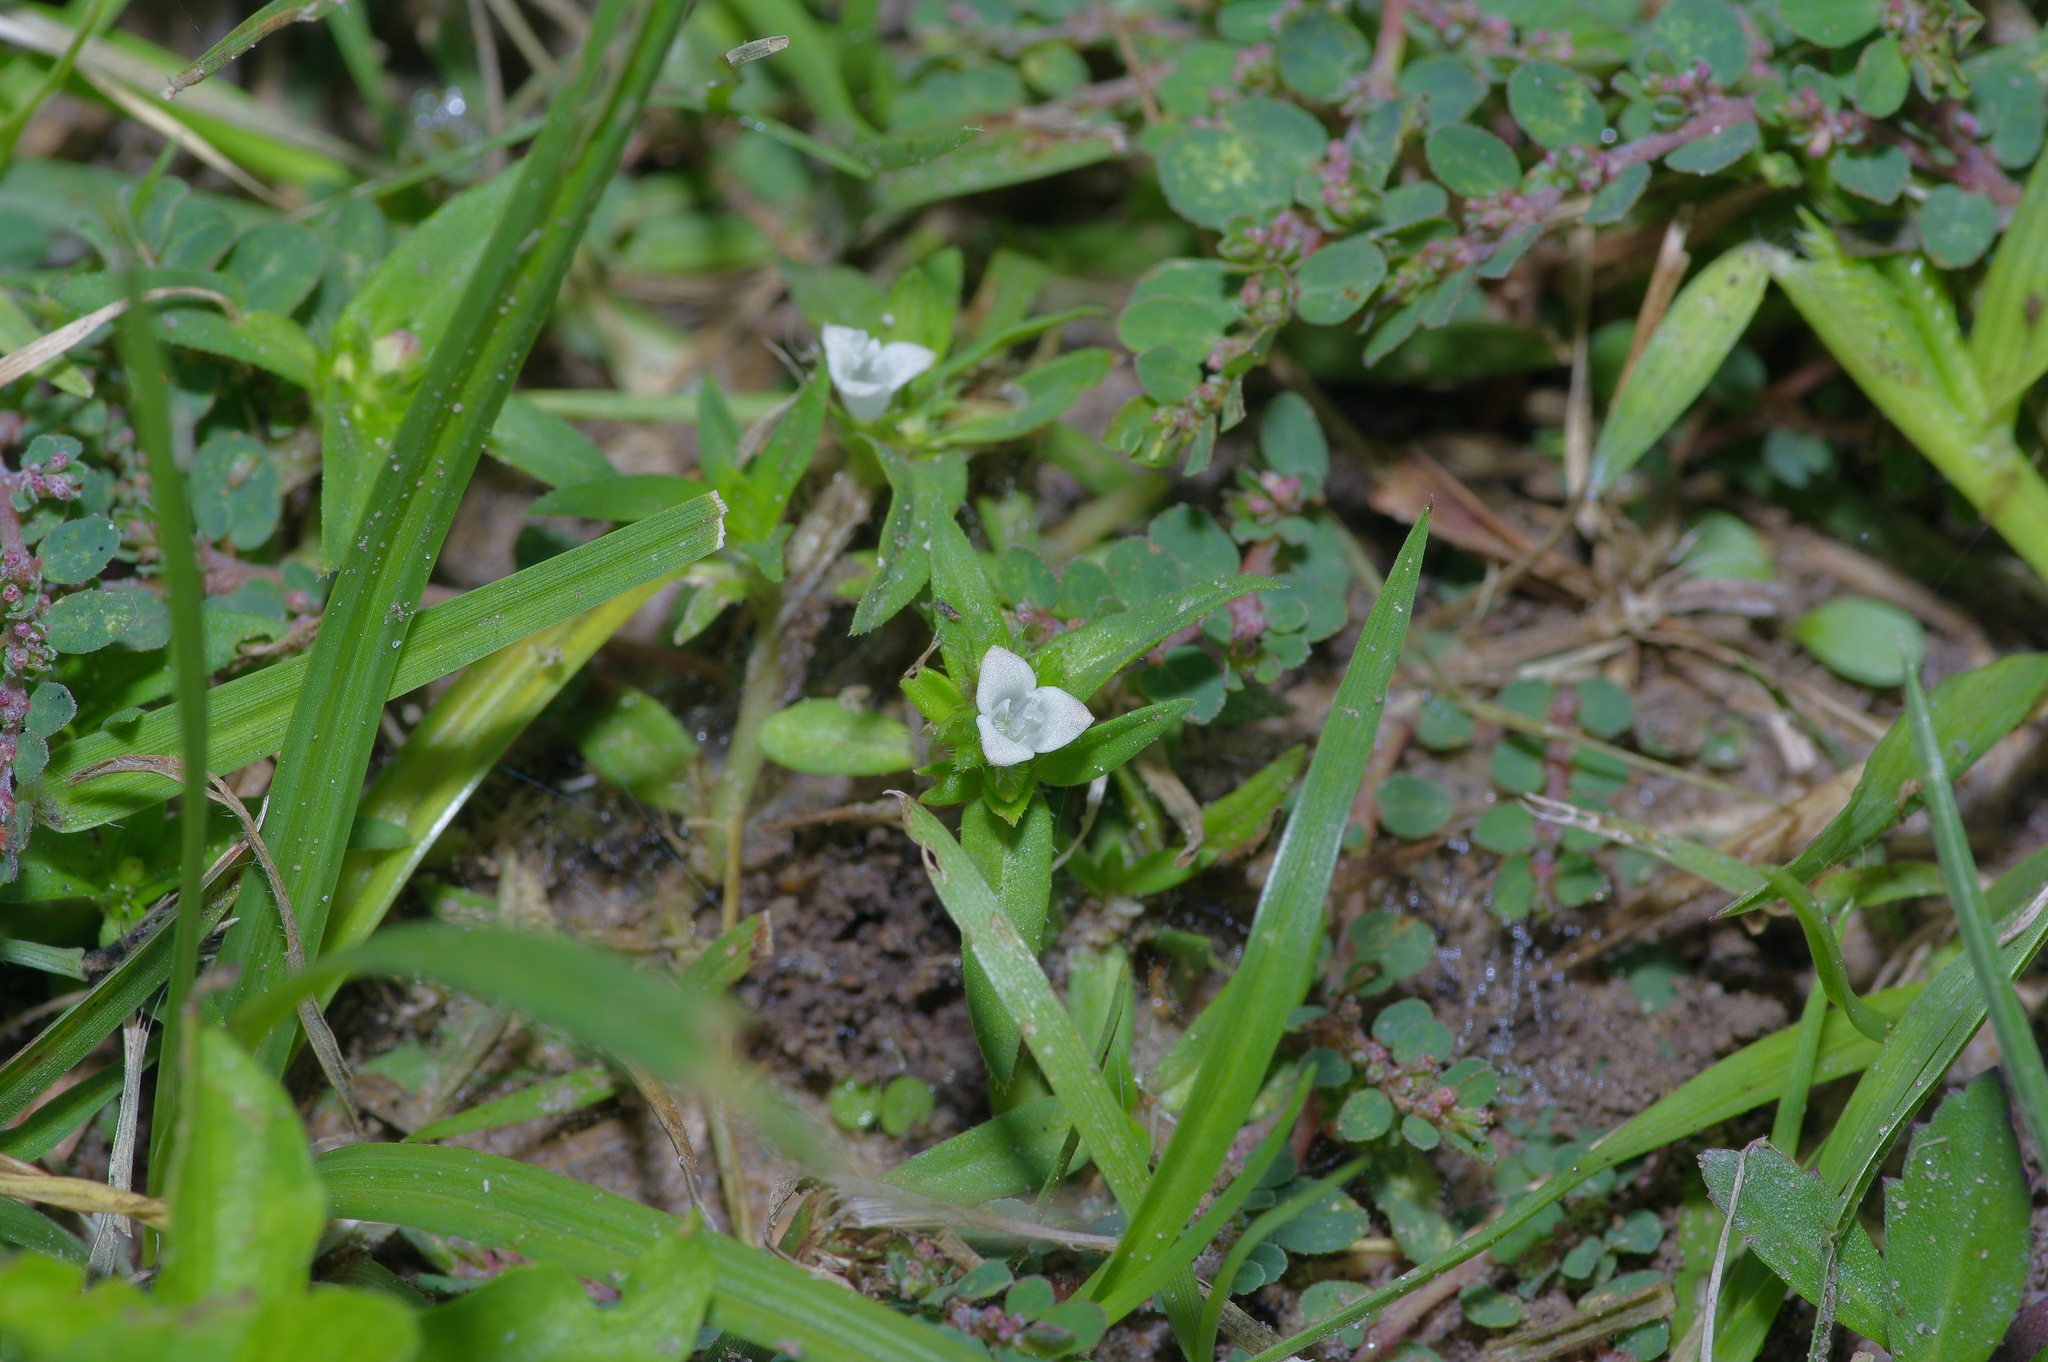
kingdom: Plantae
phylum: Tracheophyta
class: Magnoliopsida
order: Gentianales
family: Rubiaceae
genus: Hexasepalum
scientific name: Hexasepalum teres
